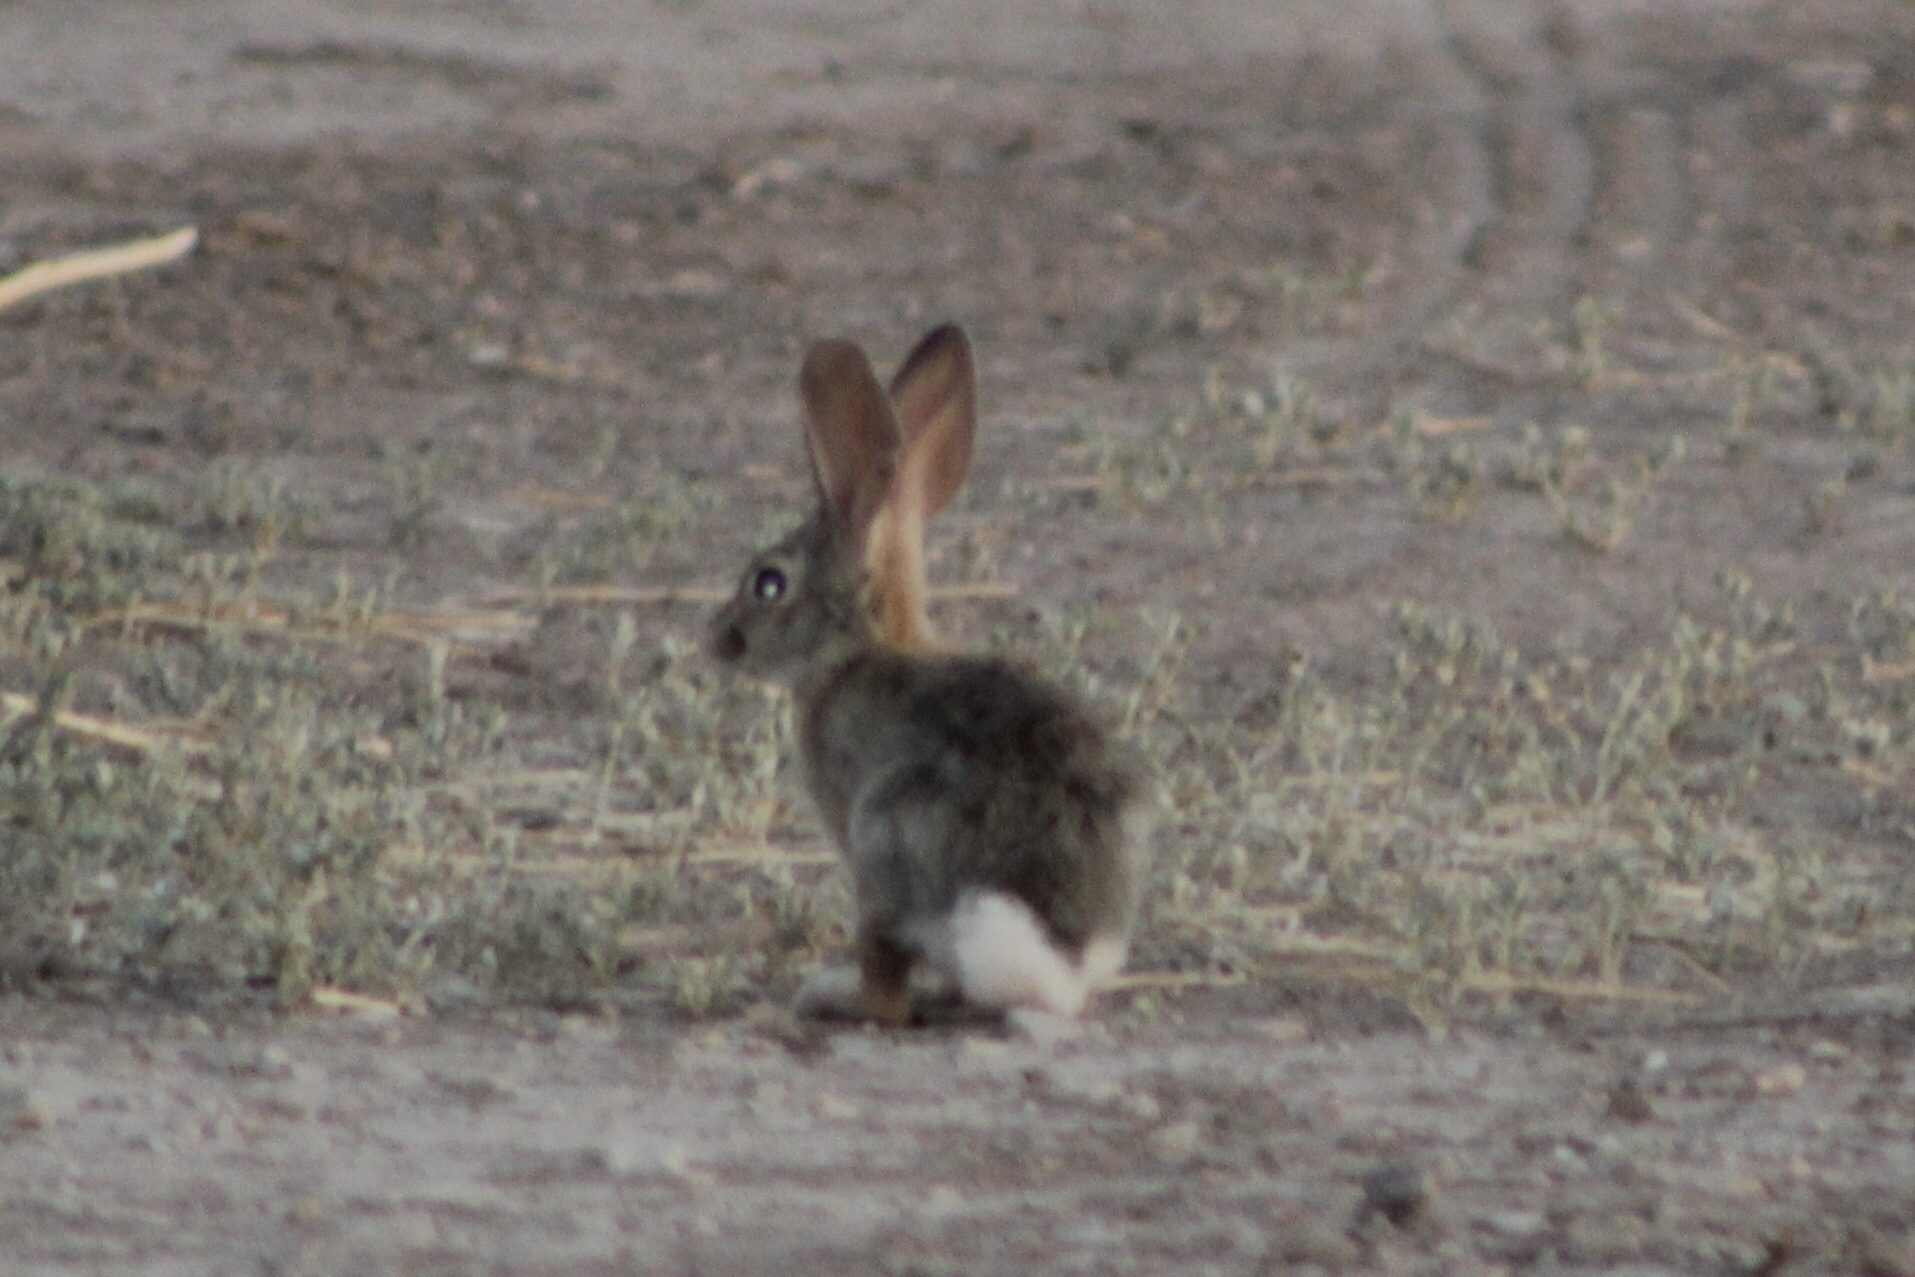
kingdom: Animalia
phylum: Chordata
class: Mammalia
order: Lagomorpha
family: Leporidae
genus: Sylvilagus
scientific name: Sylvilagus audubonii
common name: Desert cottontail
